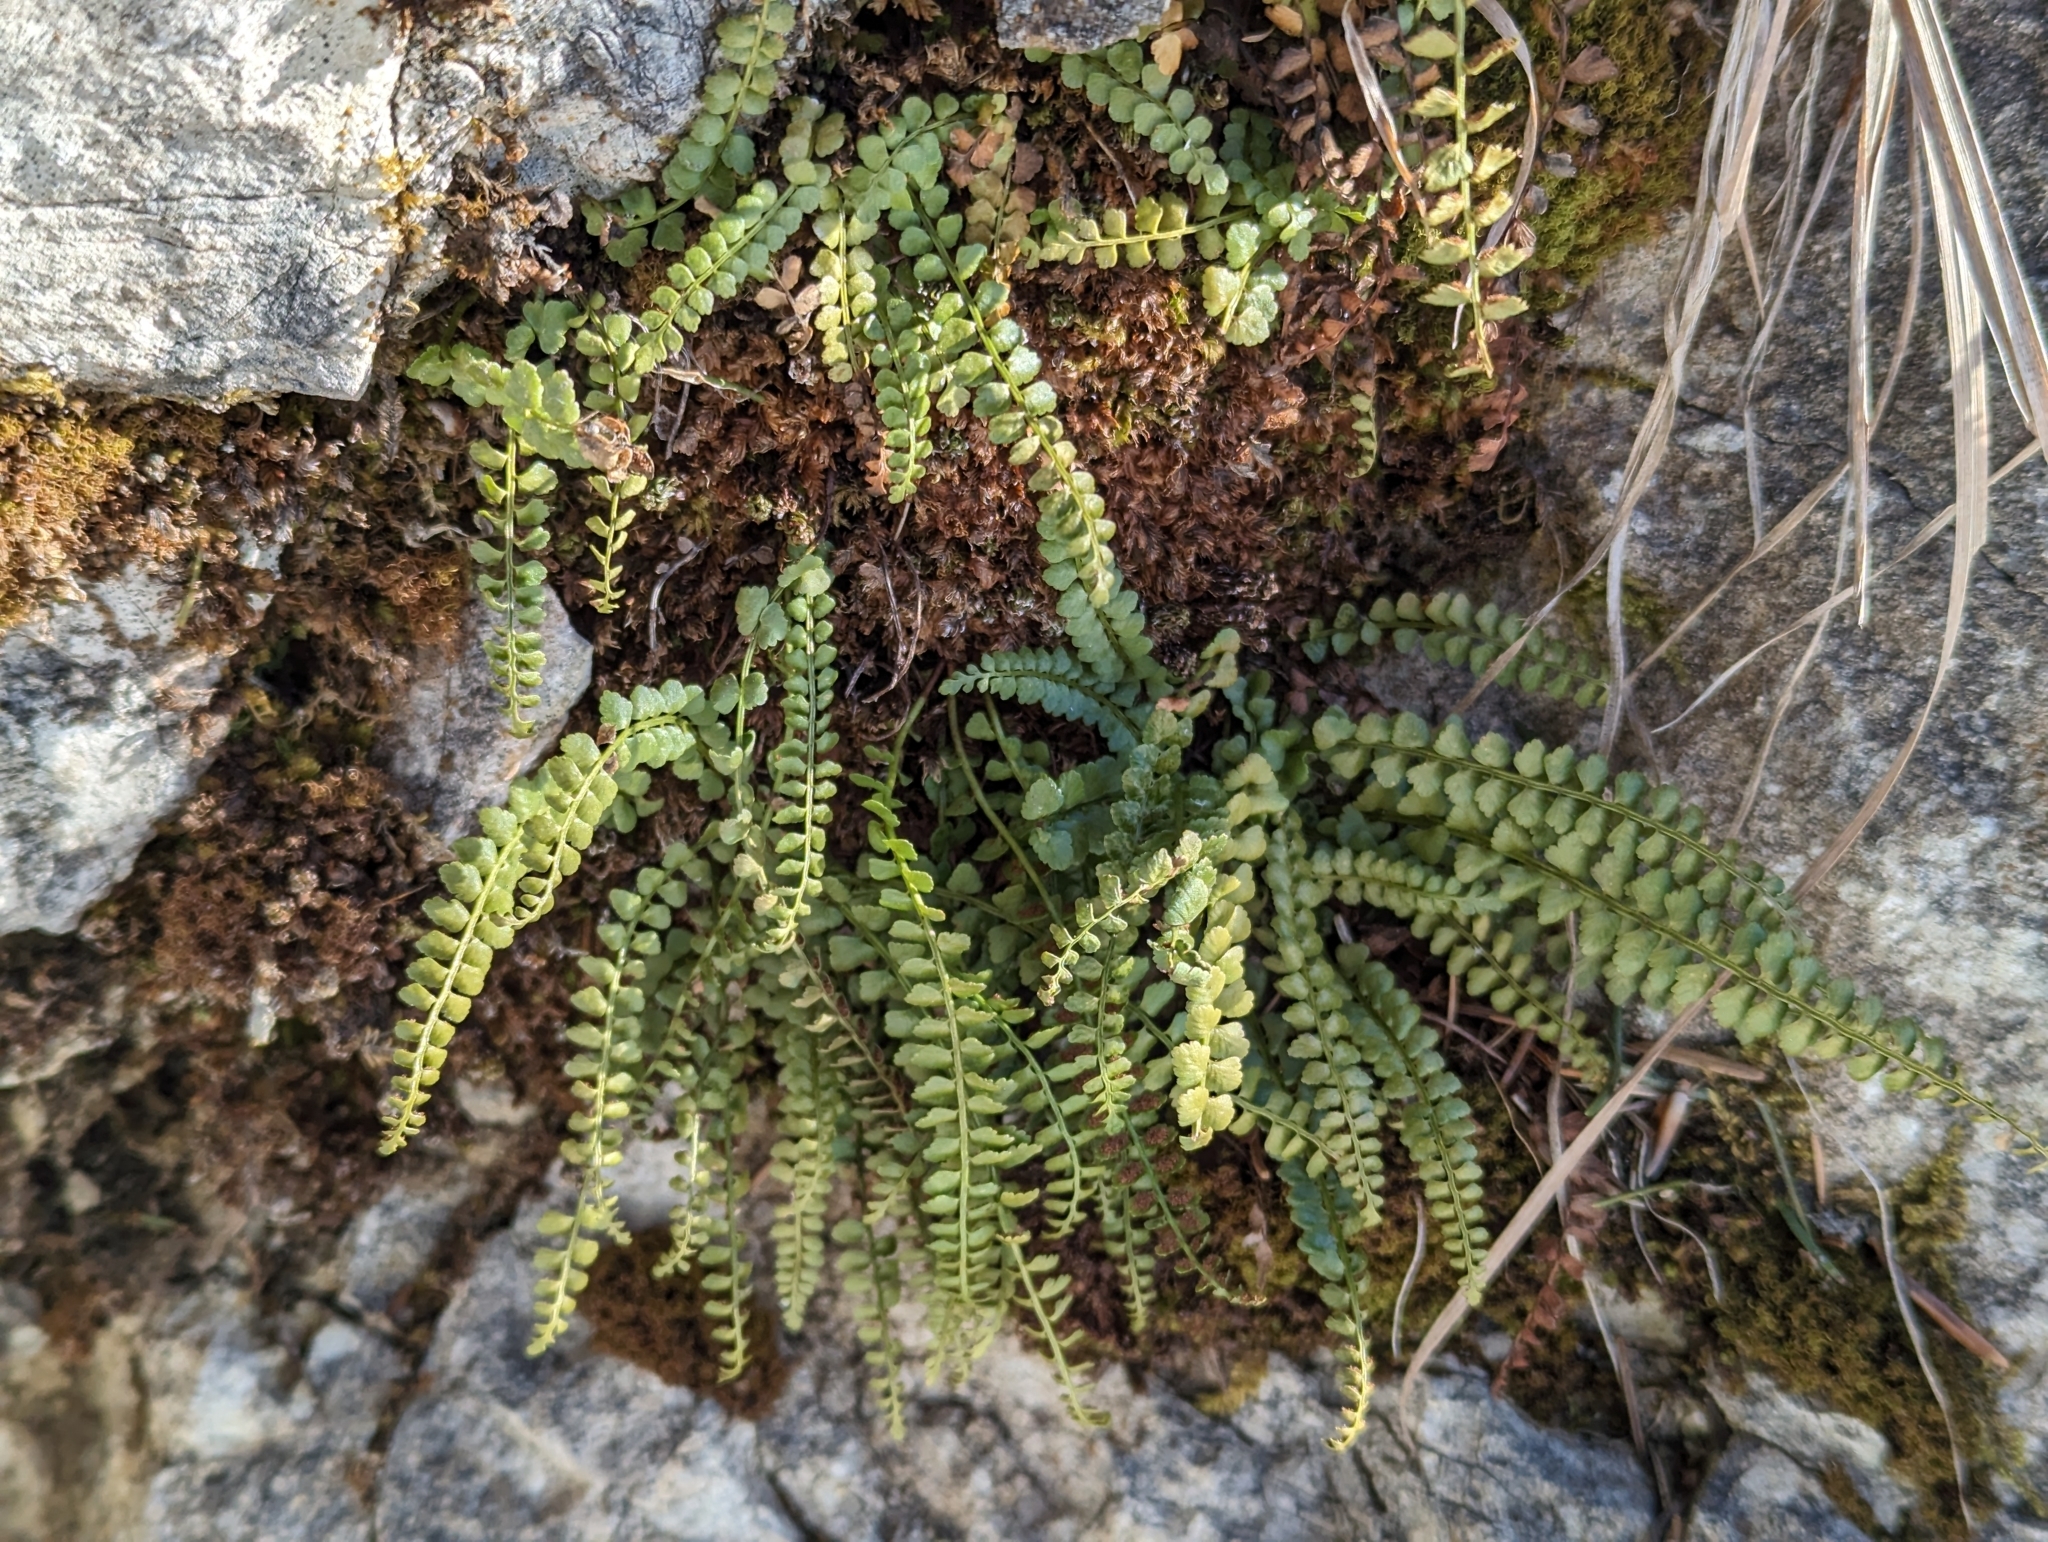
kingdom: Plantae
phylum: Tracheophyta
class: Polypodiopsida
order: Polypodiales
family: Aspleniaceae
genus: Asplenium
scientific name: Asplenium viride
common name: Green spleenwort
